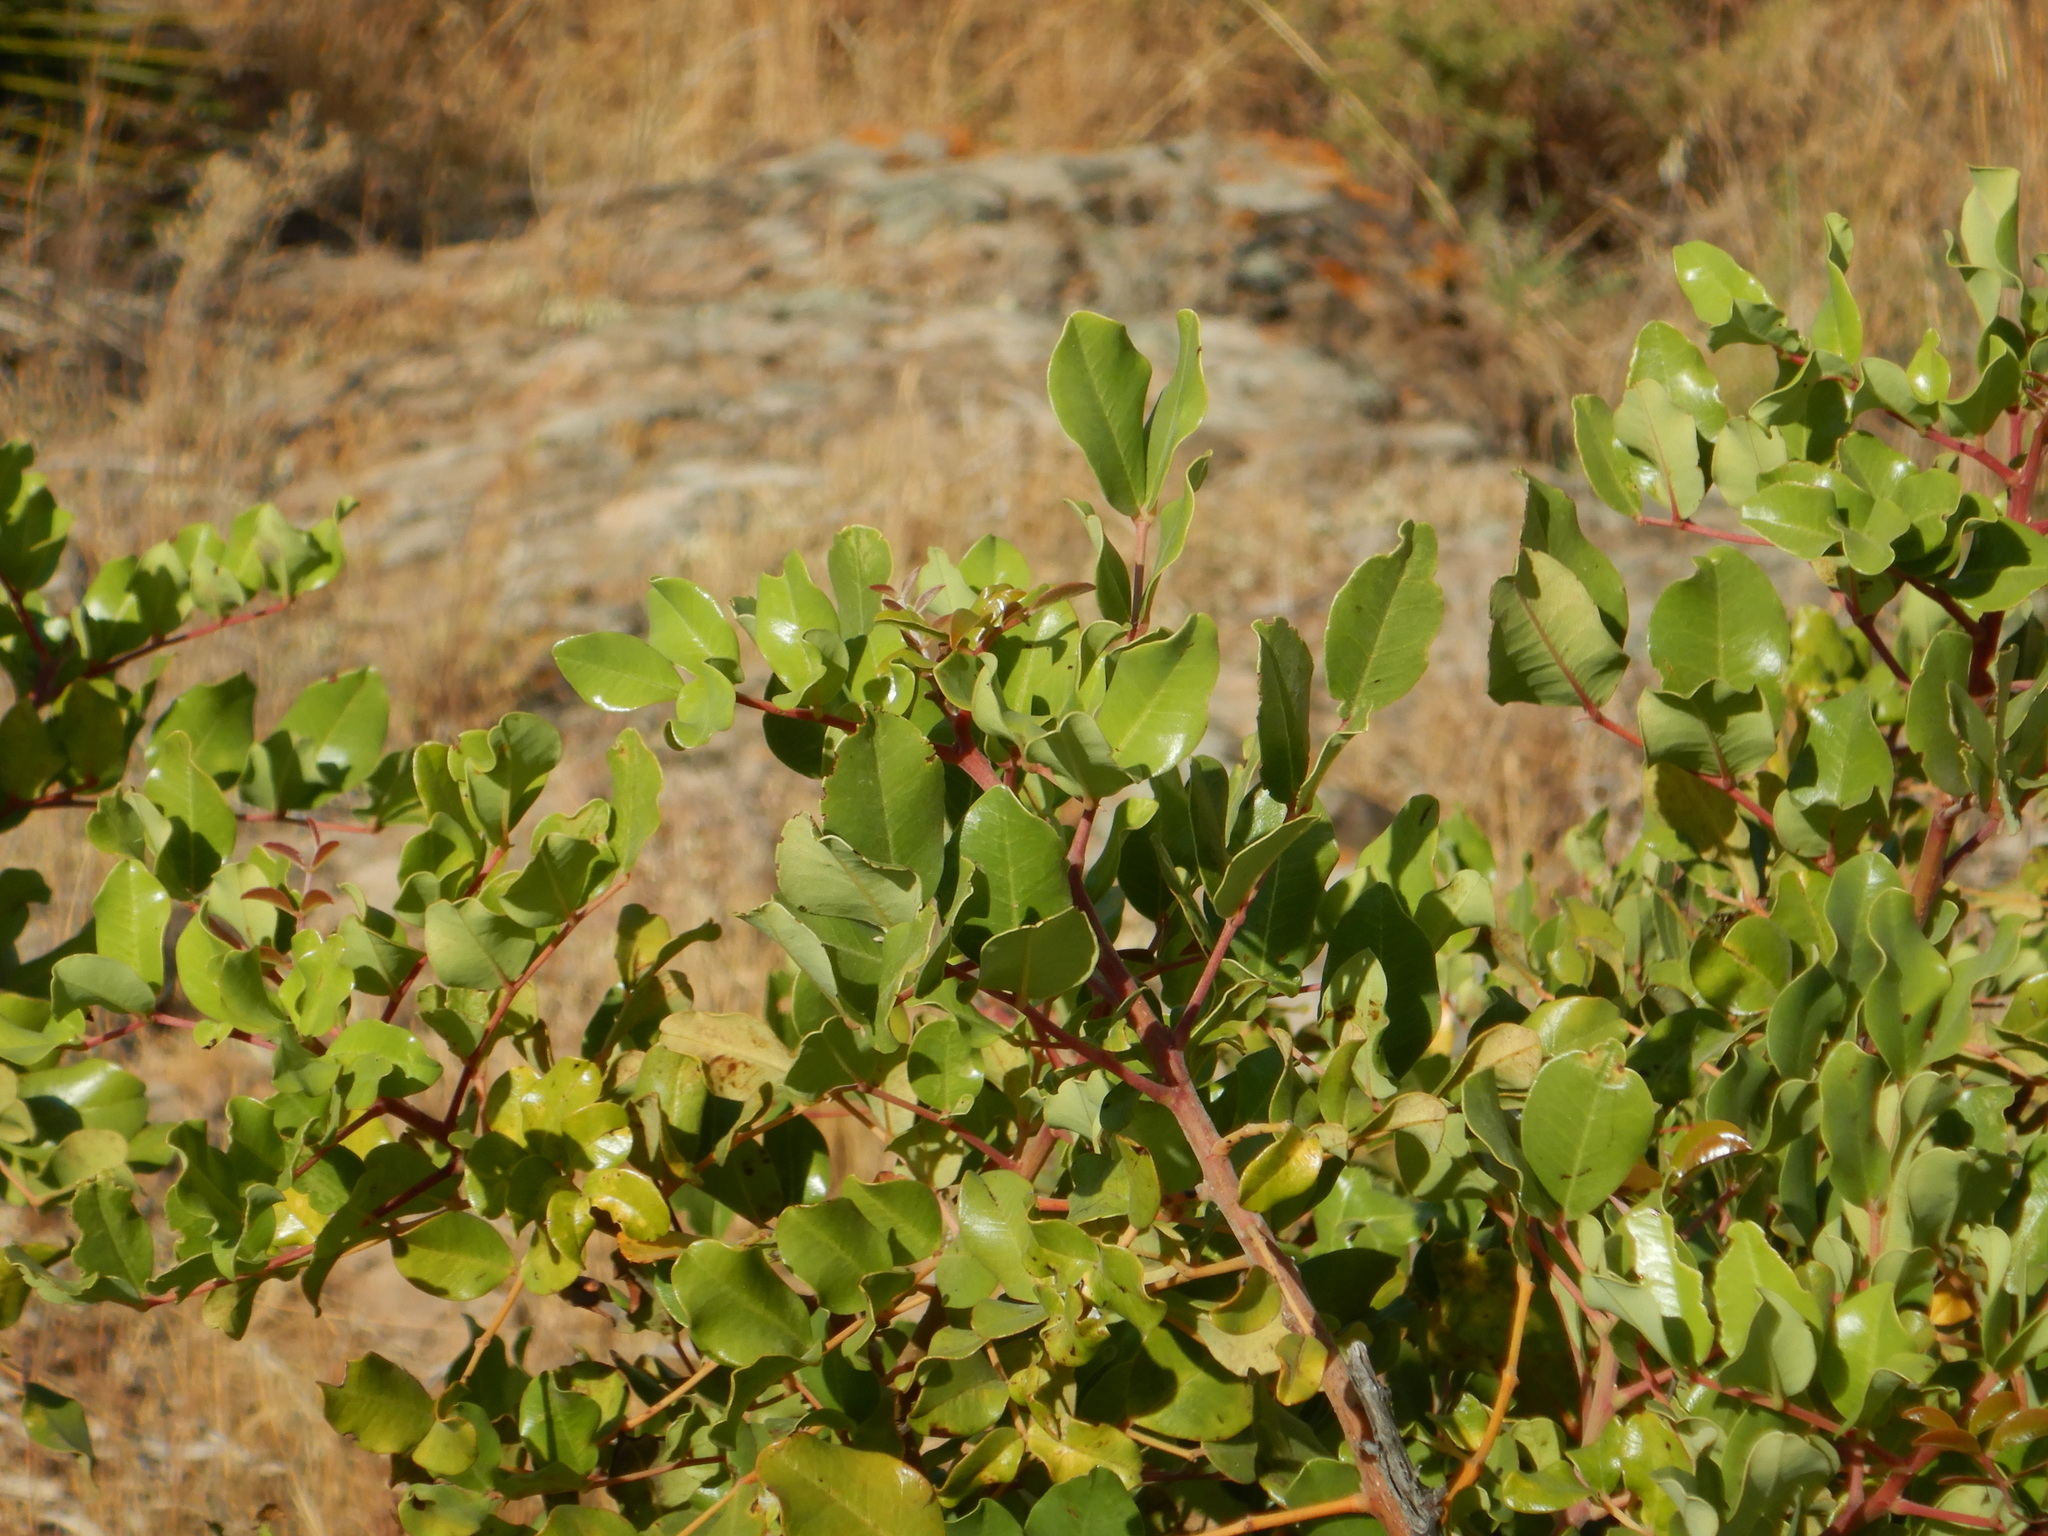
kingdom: Plantae
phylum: Tracheophyta
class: Magnoliopsida
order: Fabales
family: Fabaceae
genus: Ceratonia
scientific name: Ceratonia siliqua
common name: Carob
